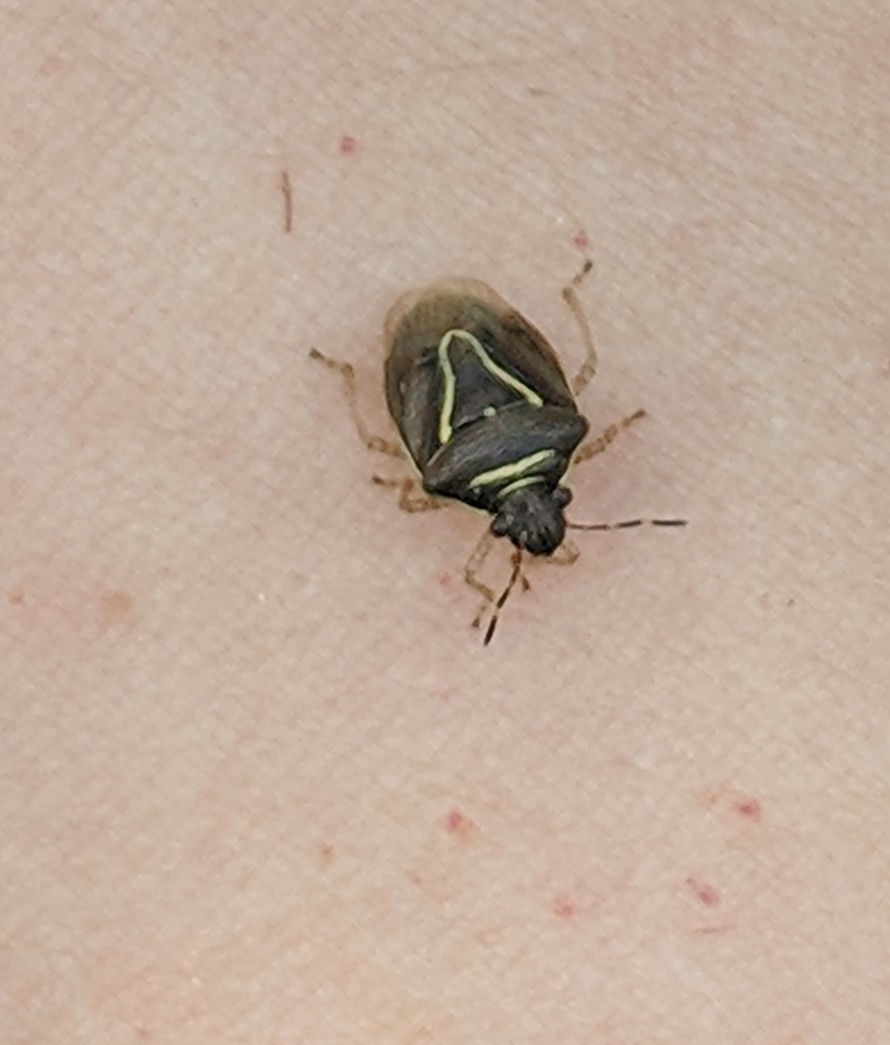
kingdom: Animalia
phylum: Arthropoda
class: Insecta
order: Hemiptera
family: Pentatomidae
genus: Mormidea
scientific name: Mormidea lugens
